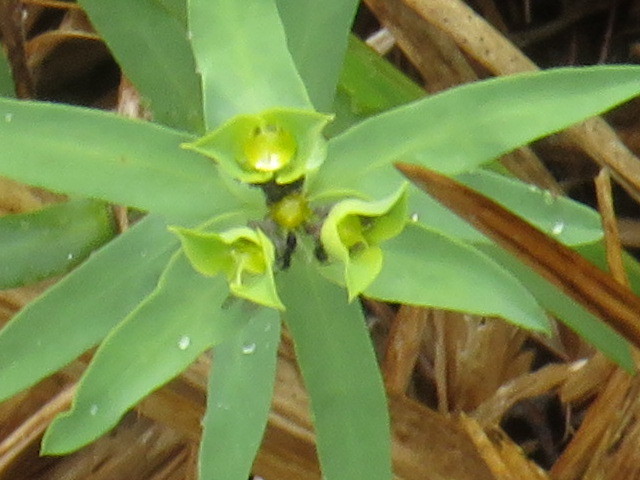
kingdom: Animalia
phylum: Arthropoda
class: Insecta
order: Hymenoptera
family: Formicidae
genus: Crematogaster
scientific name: Crematogaster peringueyi
